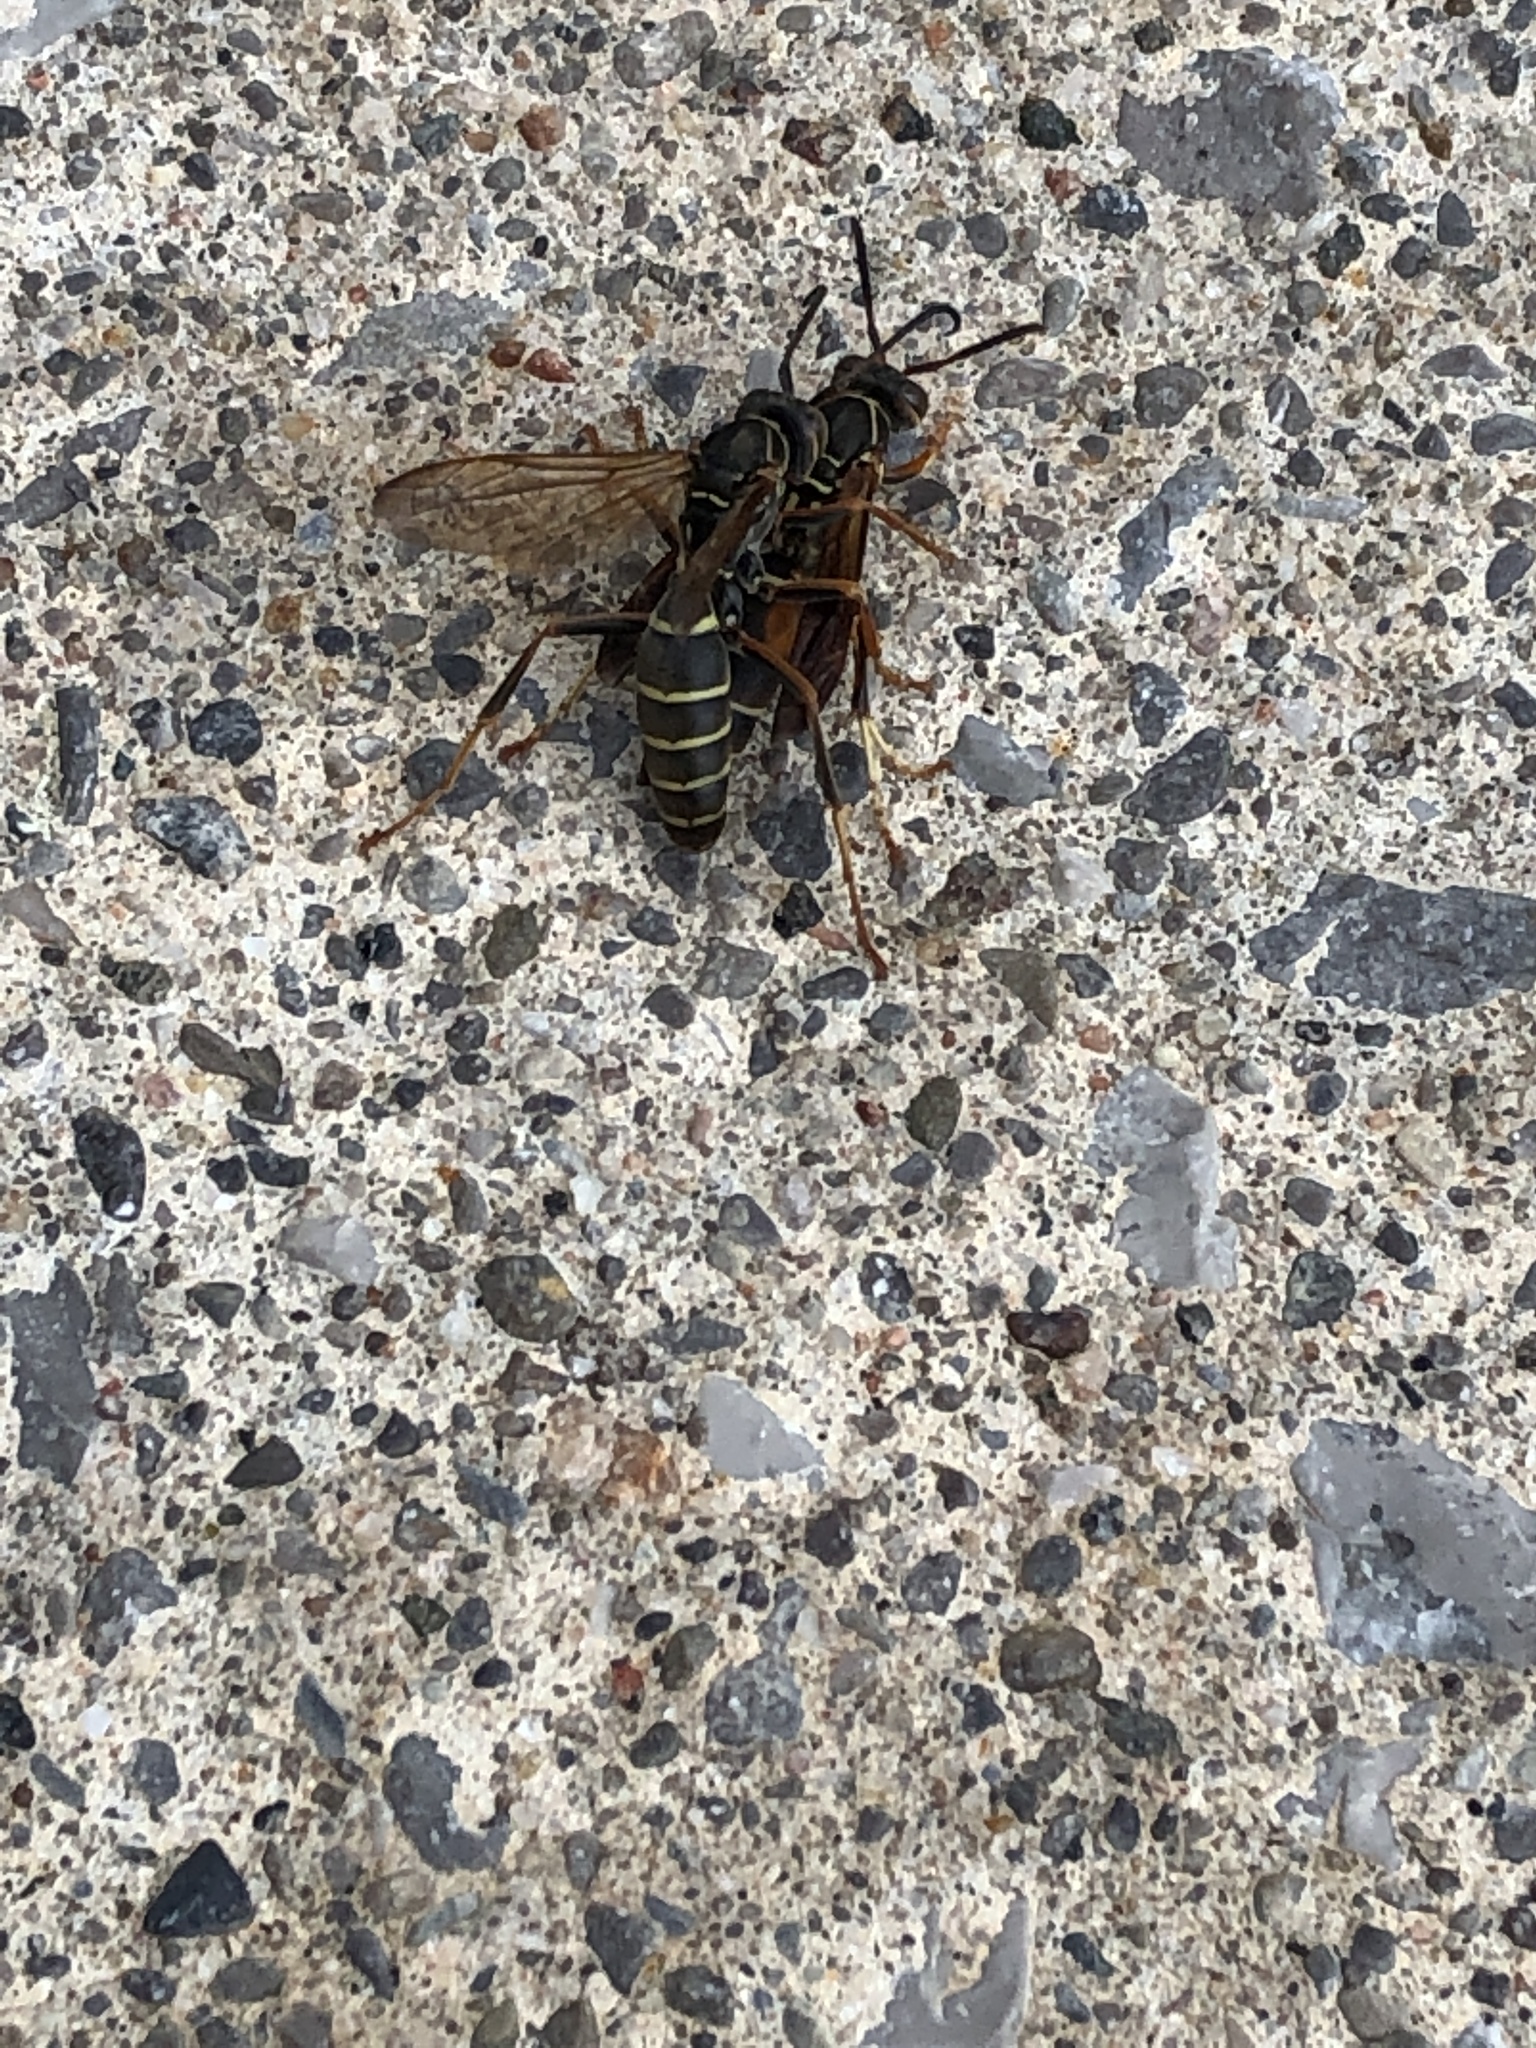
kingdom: Animalia
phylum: Arthropoda
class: Insecta
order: Hymenoptera
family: Eumenidae
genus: Polistes
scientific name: Polistes fuscatus
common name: Dark paper wasp
